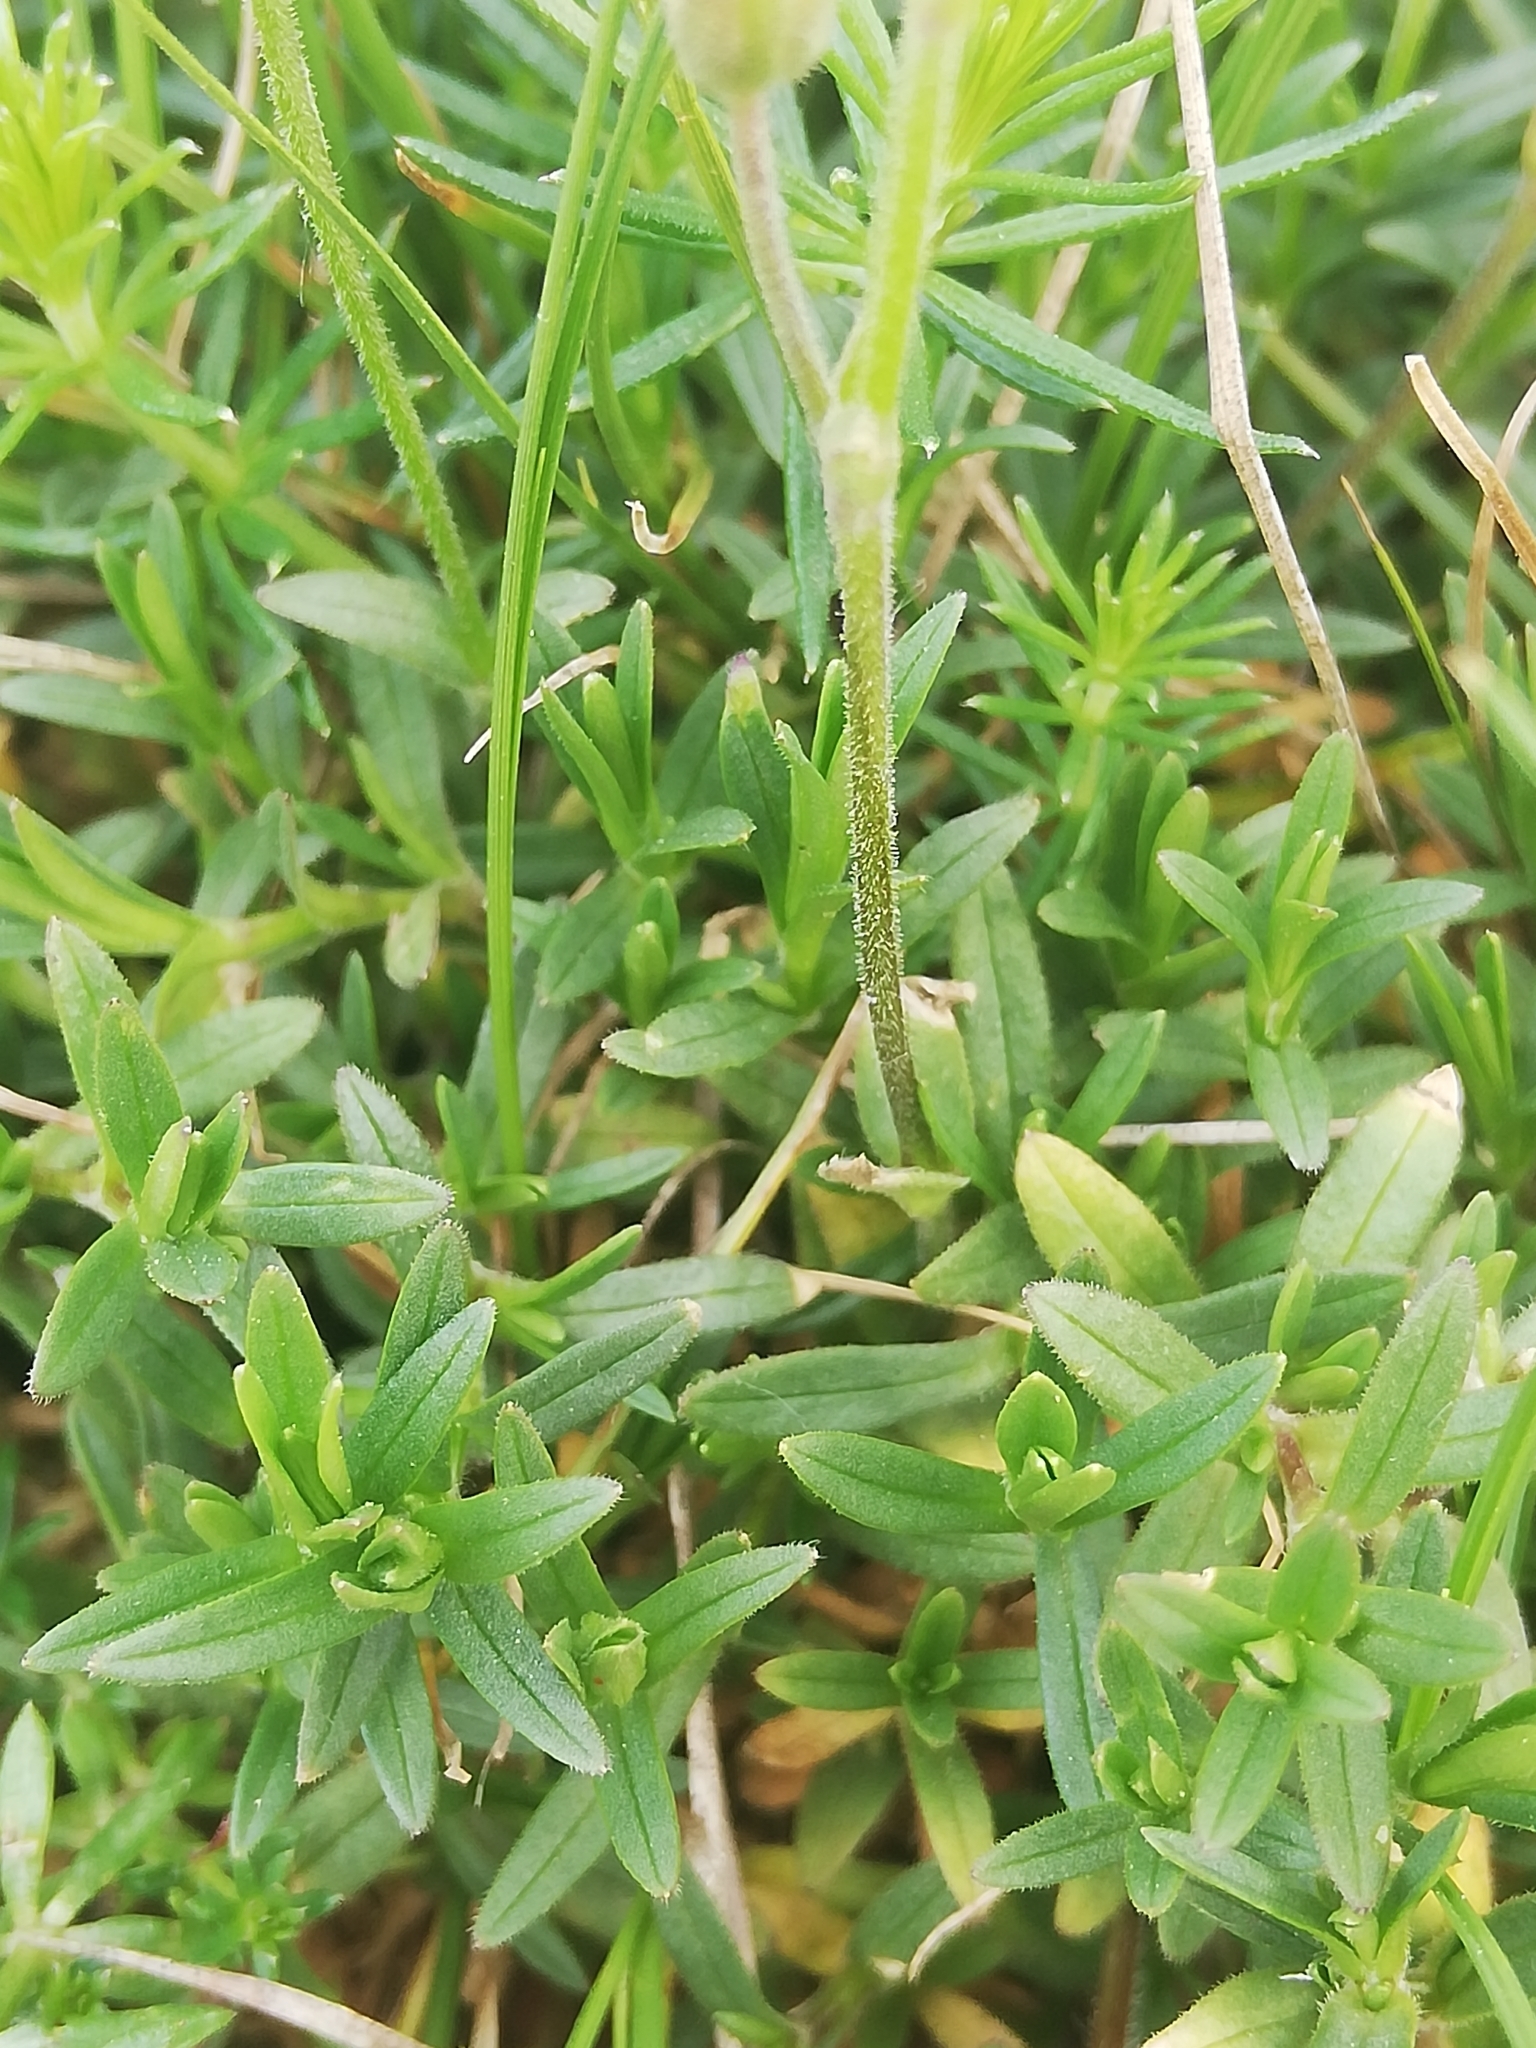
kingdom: Plantae
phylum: Tracheophyta
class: Magnoliopsida
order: Caryophyllales
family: Caryophyllaceae
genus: Cerastium
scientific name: Cerastium arvense
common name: Field mouse-ear
